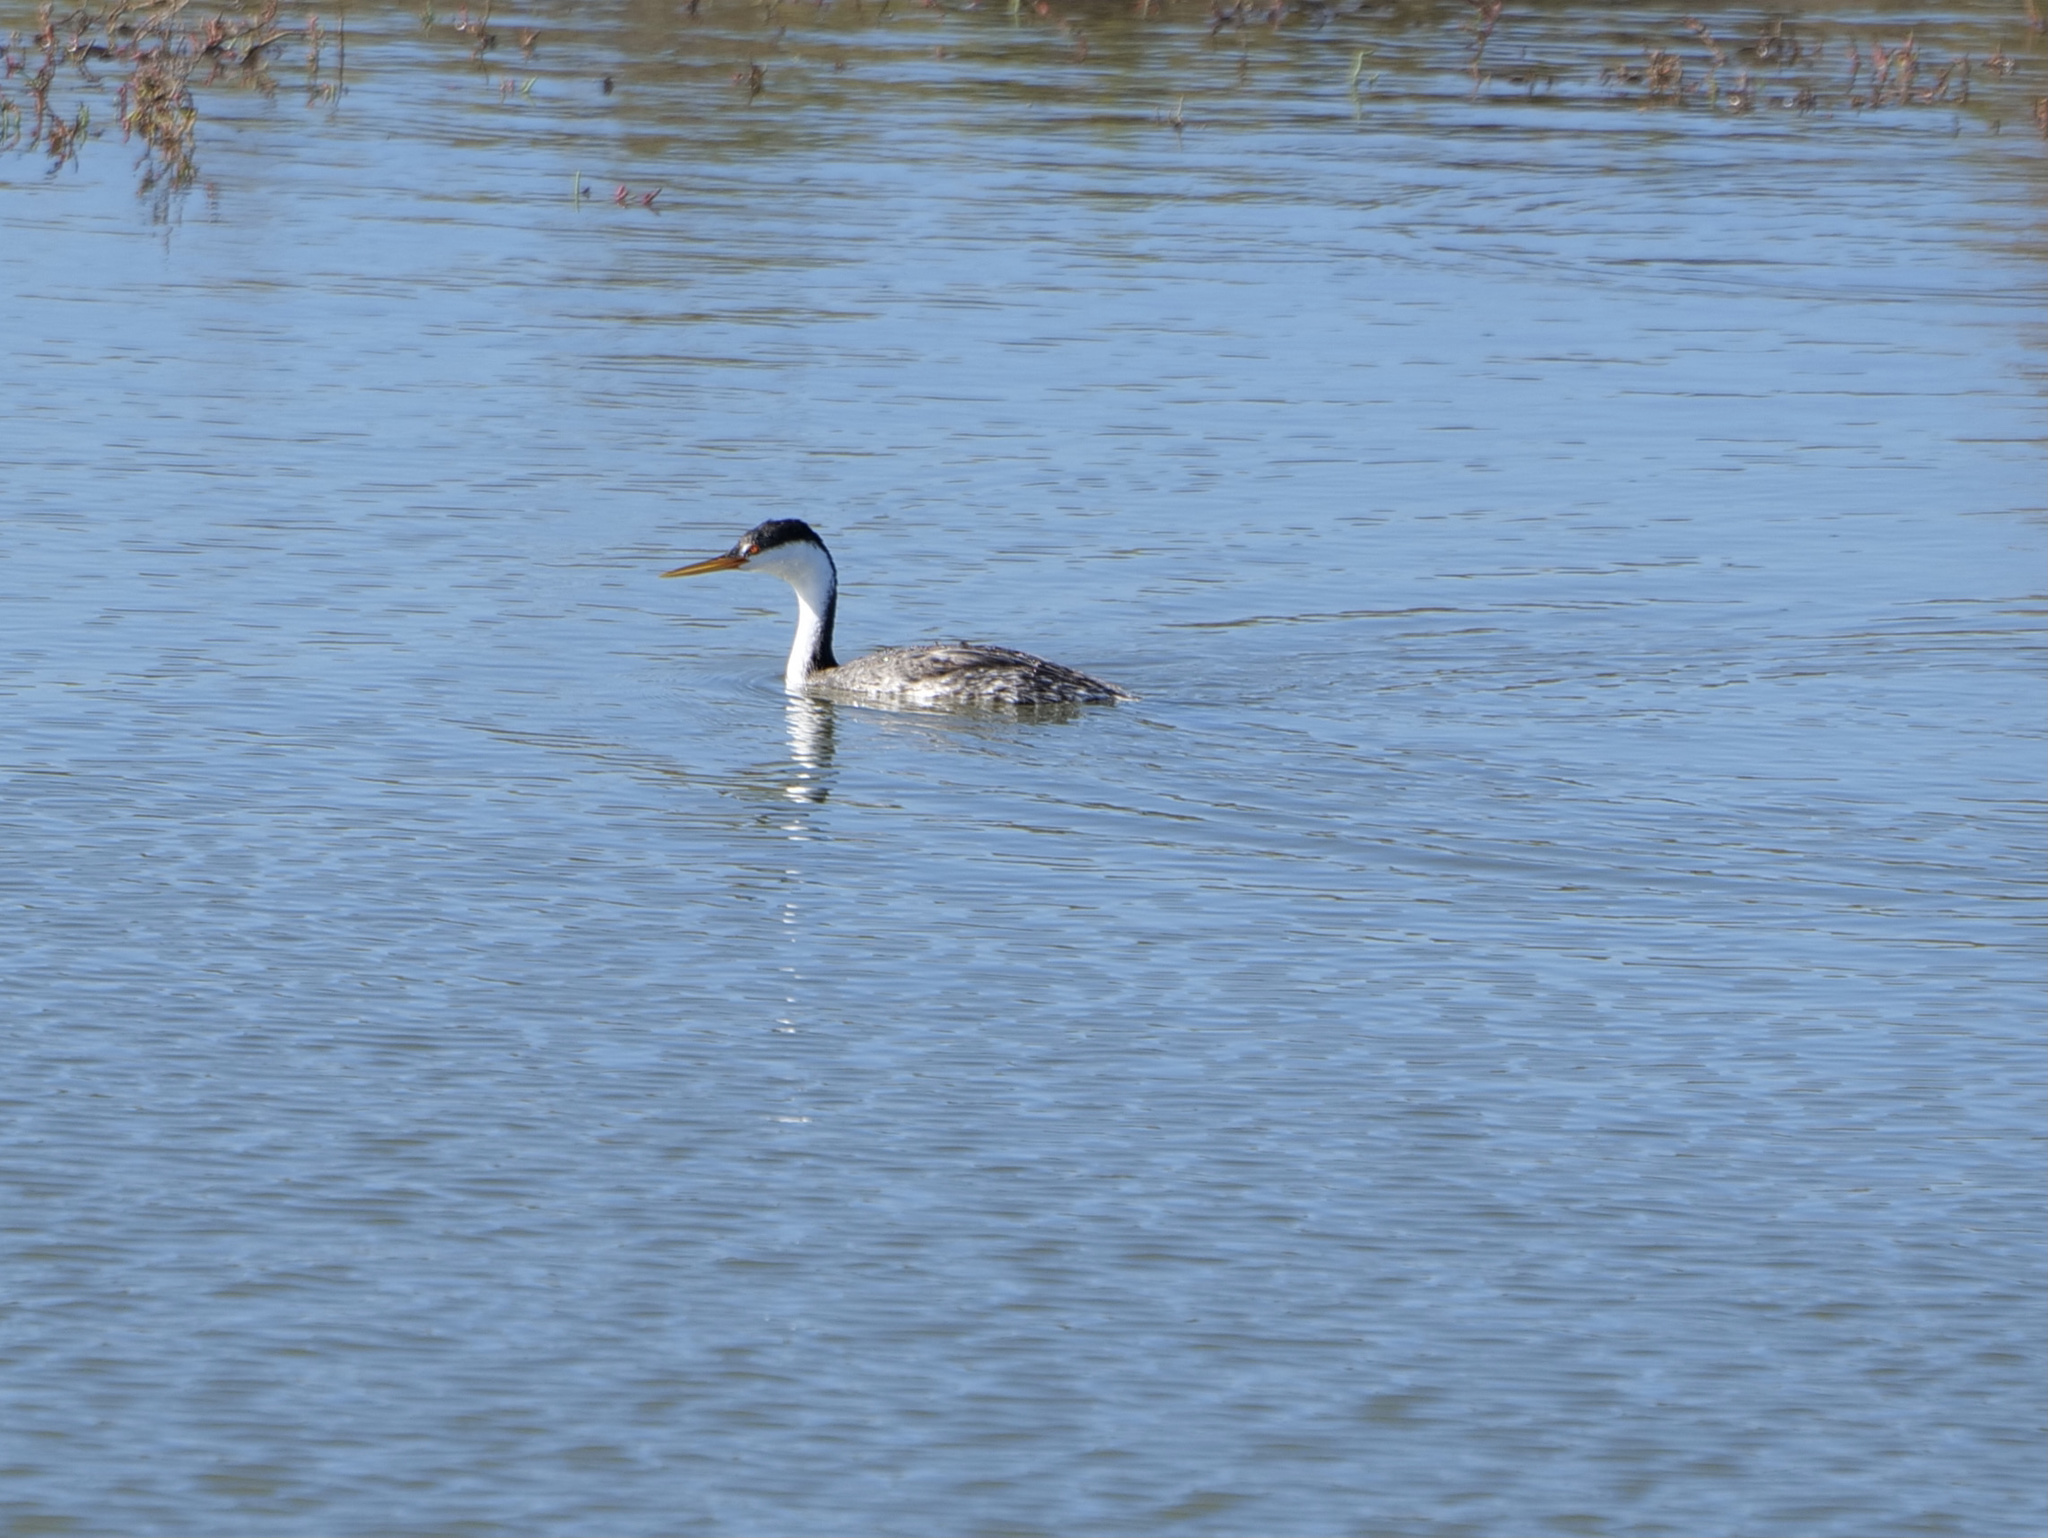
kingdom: Animalia
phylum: Chordata
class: Aves
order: Podicipediformes
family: Podicipedidae
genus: Aechmophorus
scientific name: Aechmophorus occidentalis
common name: Western grebe
